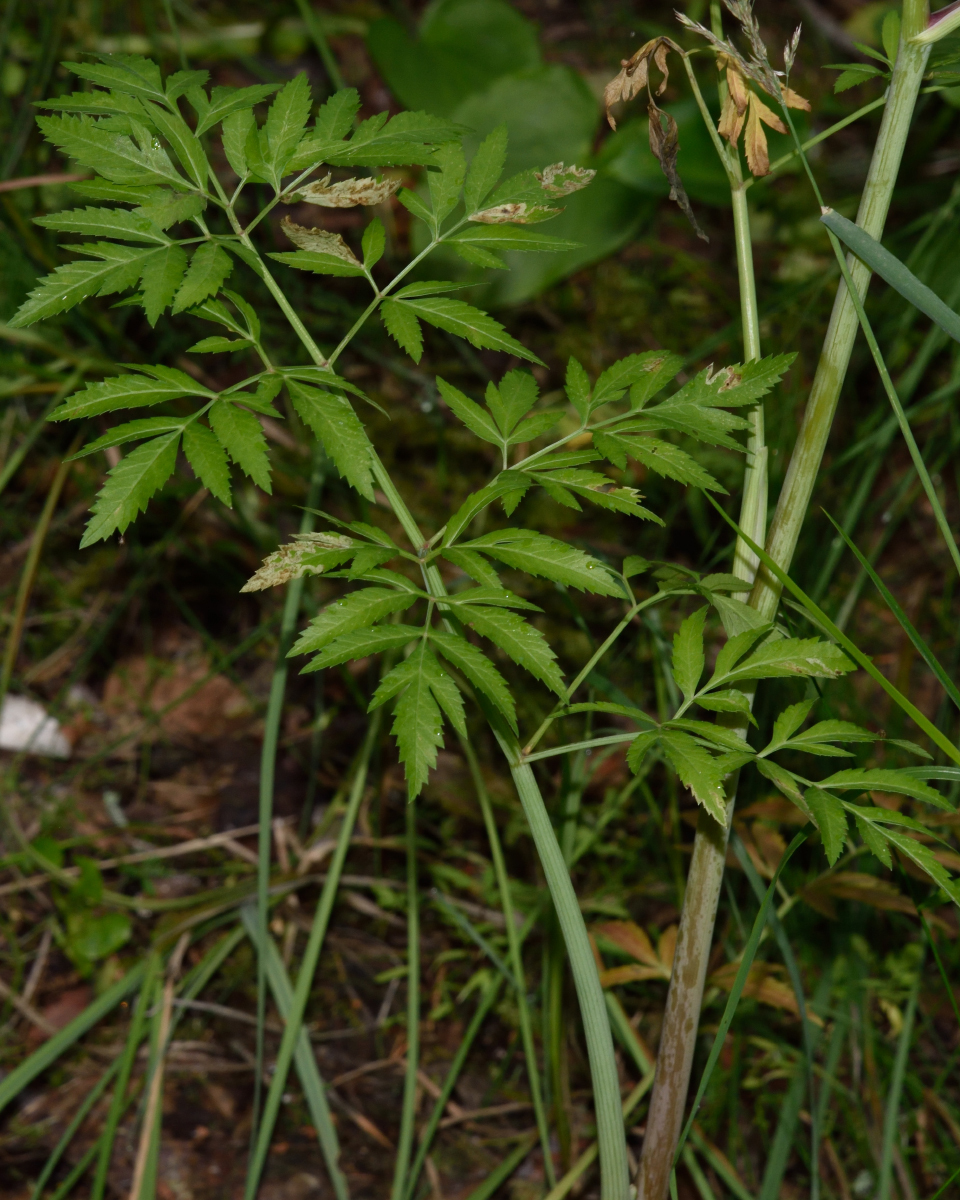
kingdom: Plantae
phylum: Tracheophyta
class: Magnoliopsida
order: Apiales
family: Apiaceae
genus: Cicuta
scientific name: Cicuta virosa
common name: Cowbane
